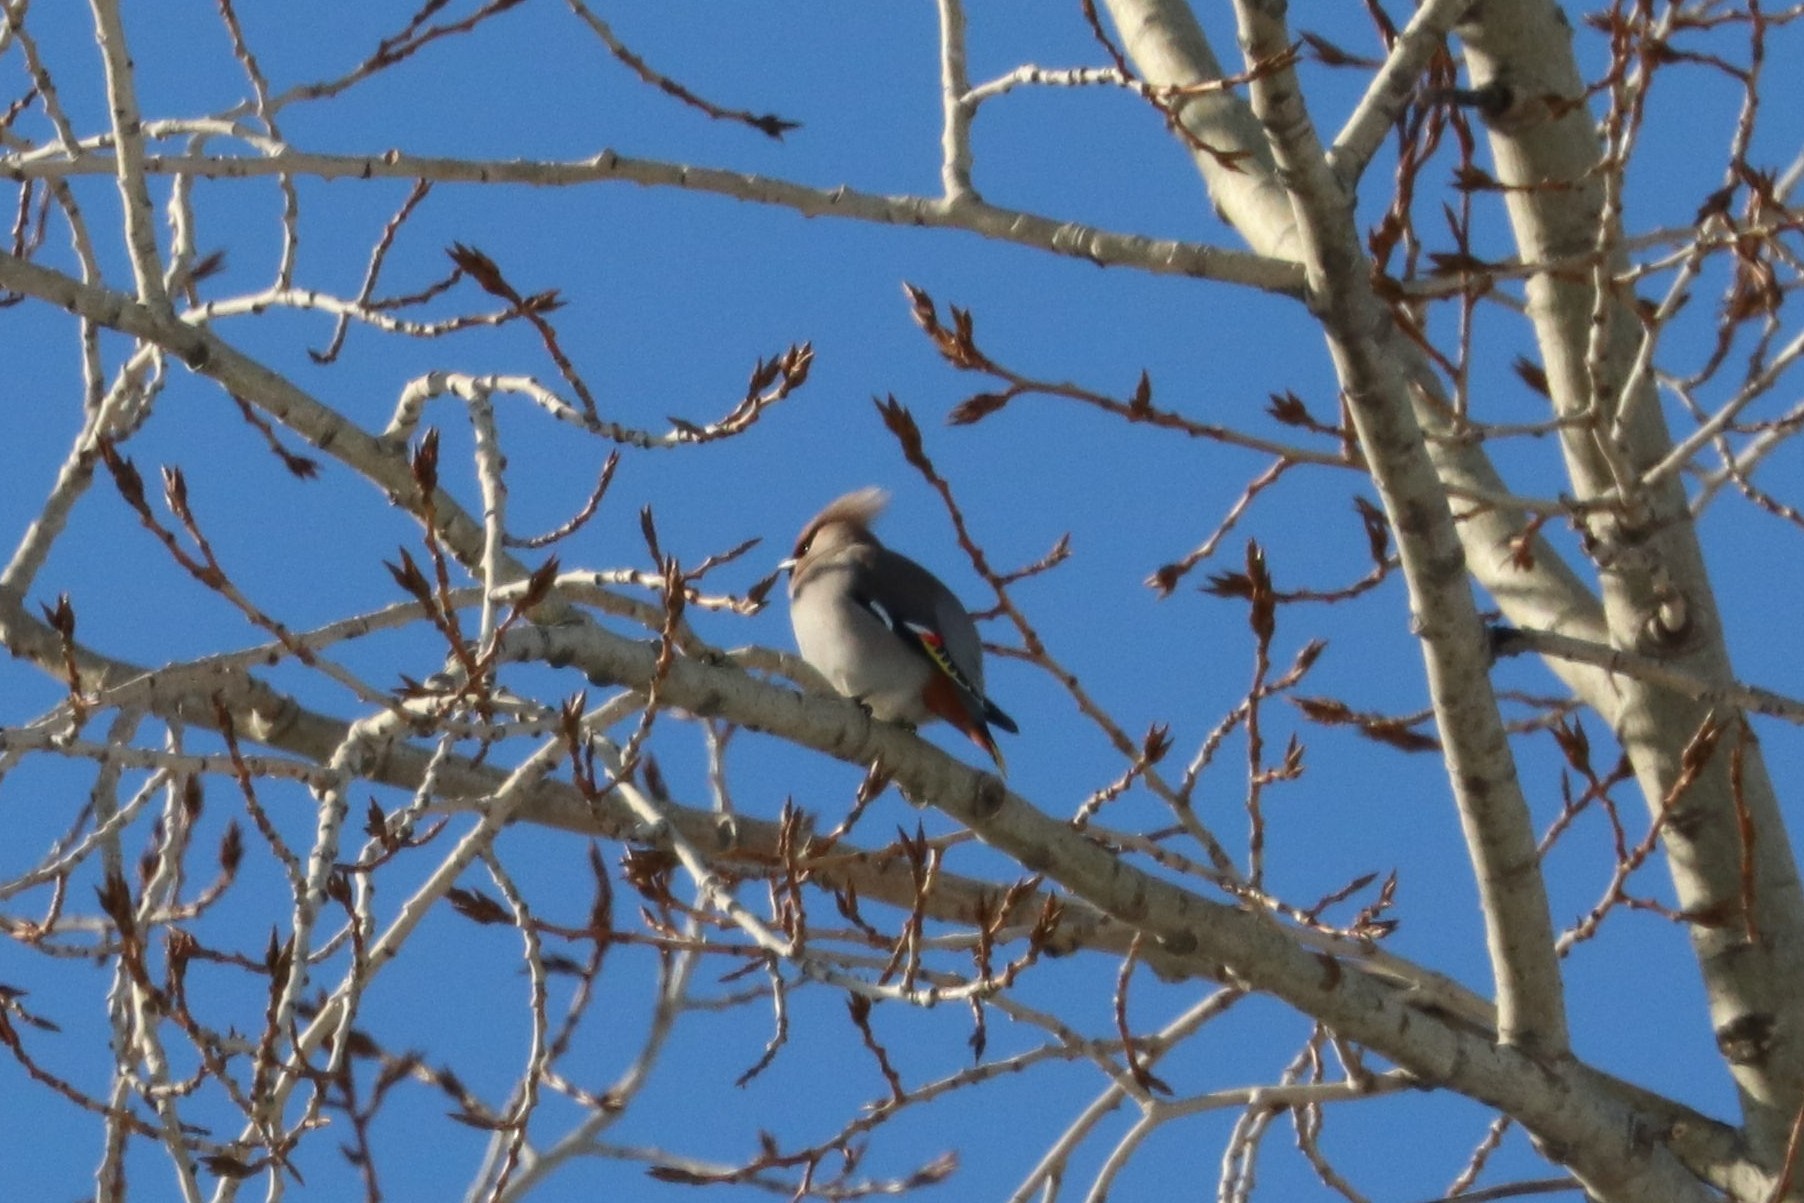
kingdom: Animalia
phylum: Chordata
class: Aves
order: Passeriformes
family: Bombycillidae
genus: Bombycilla
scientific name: Bombycilla garrulus
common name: Bohemian waxwing
